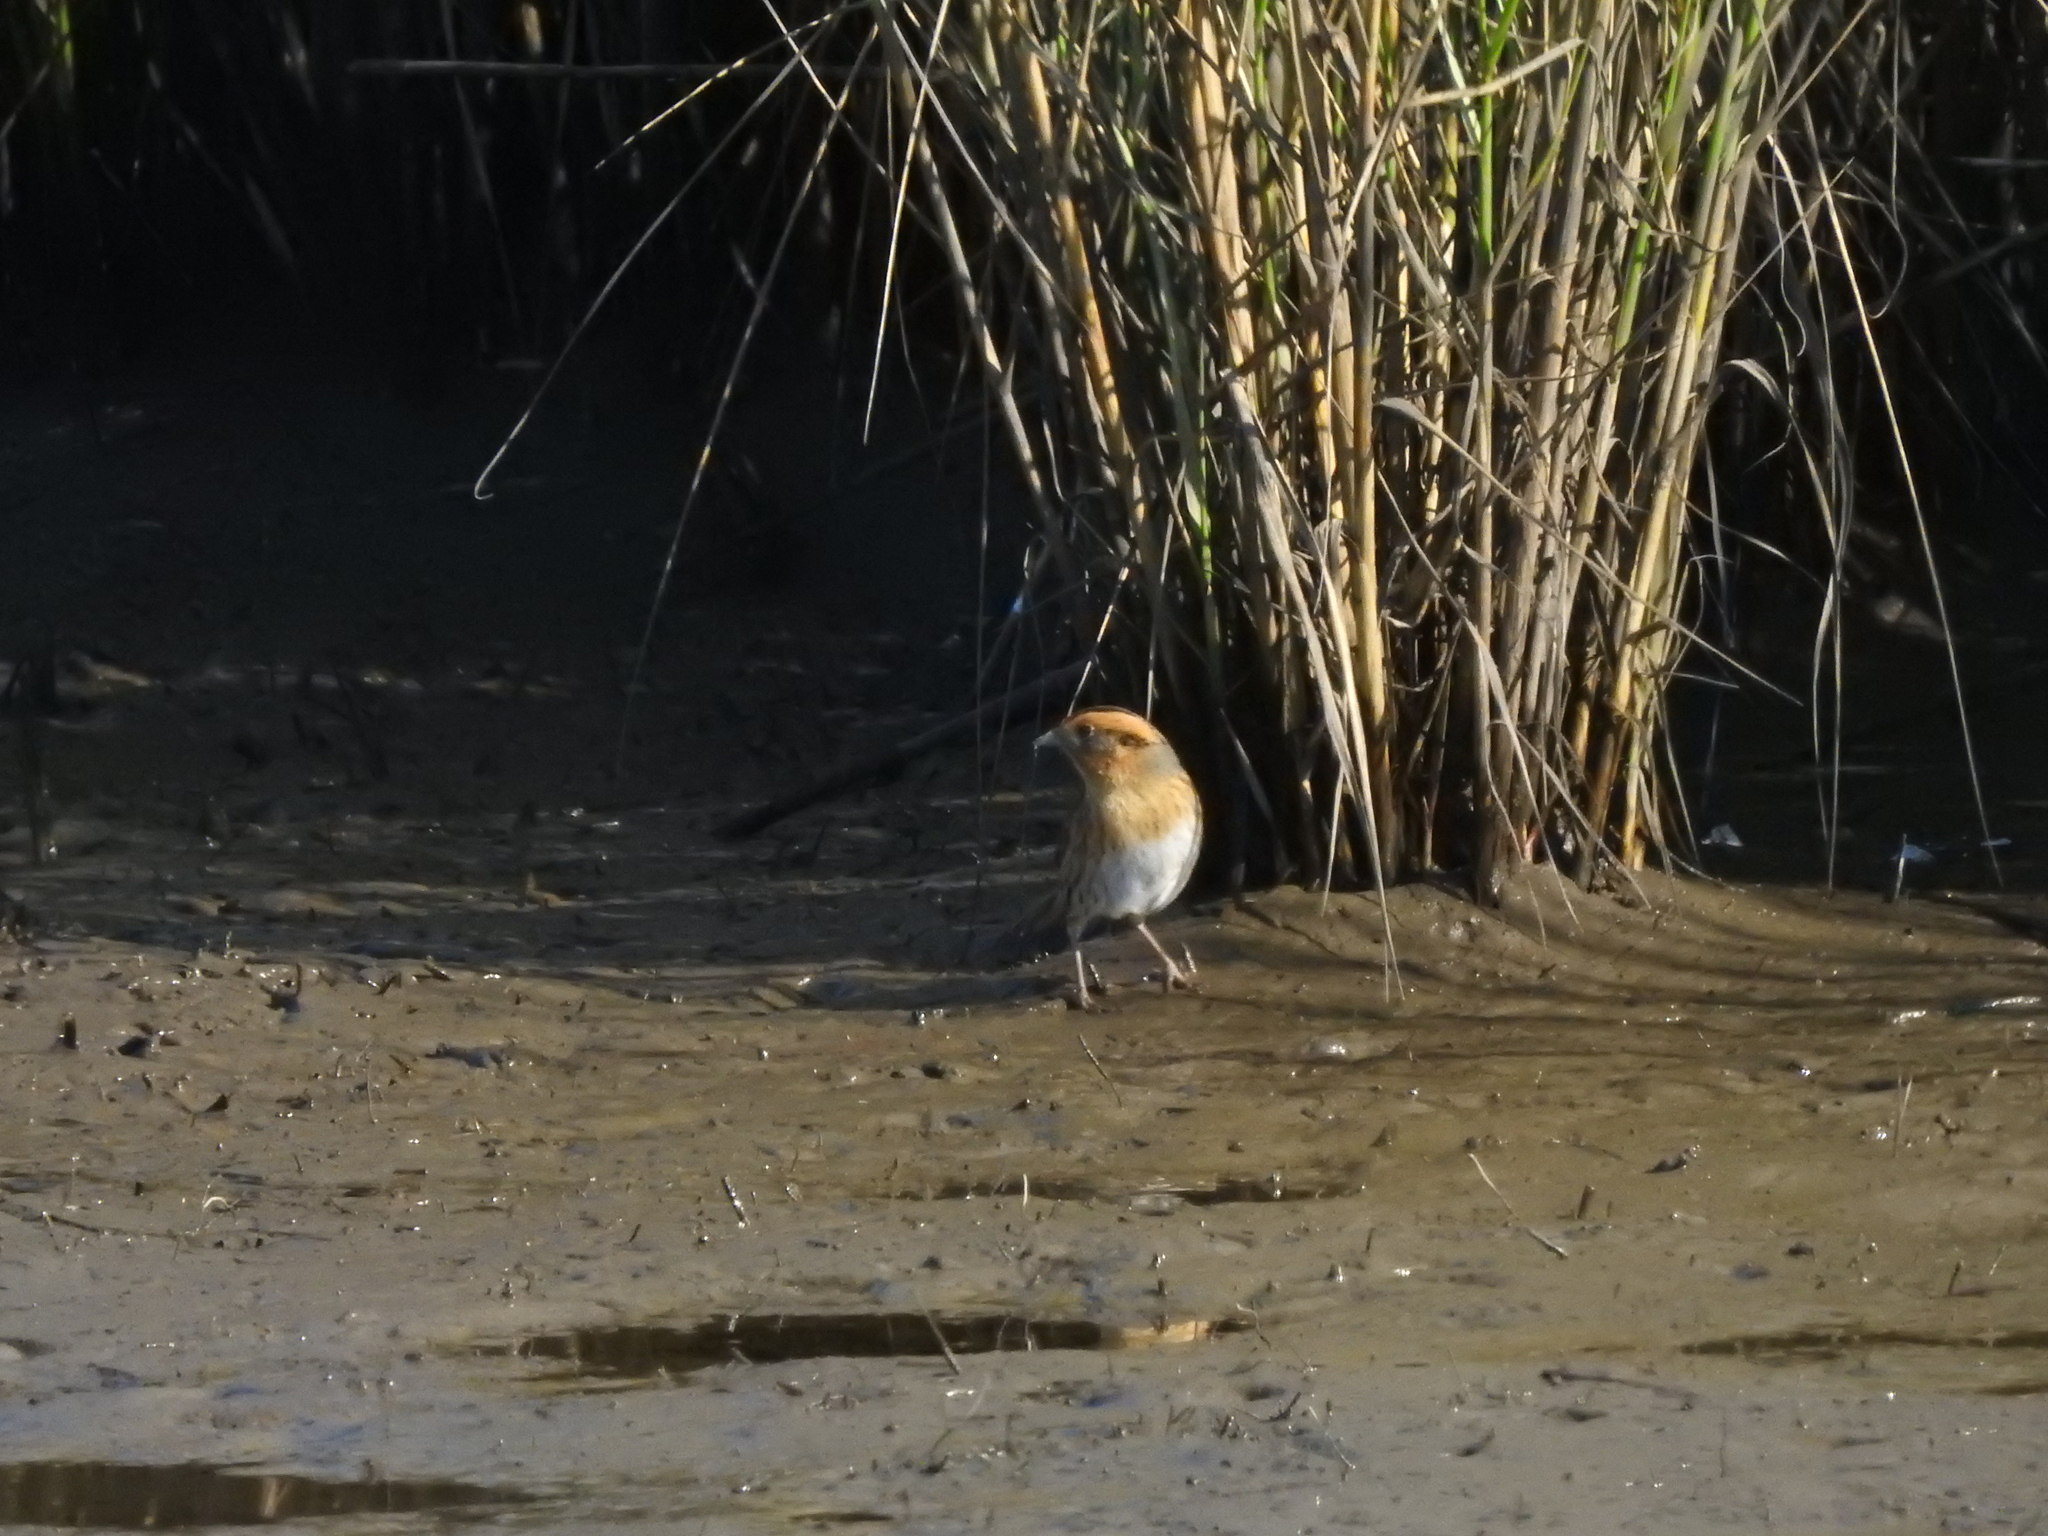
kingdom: Animalia
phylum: Chordata
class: Aves
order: Passeriformes
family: Passerellidae
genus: Ammospiza
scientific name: Ammospiza nelsoni
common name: Nelson's sparrow
